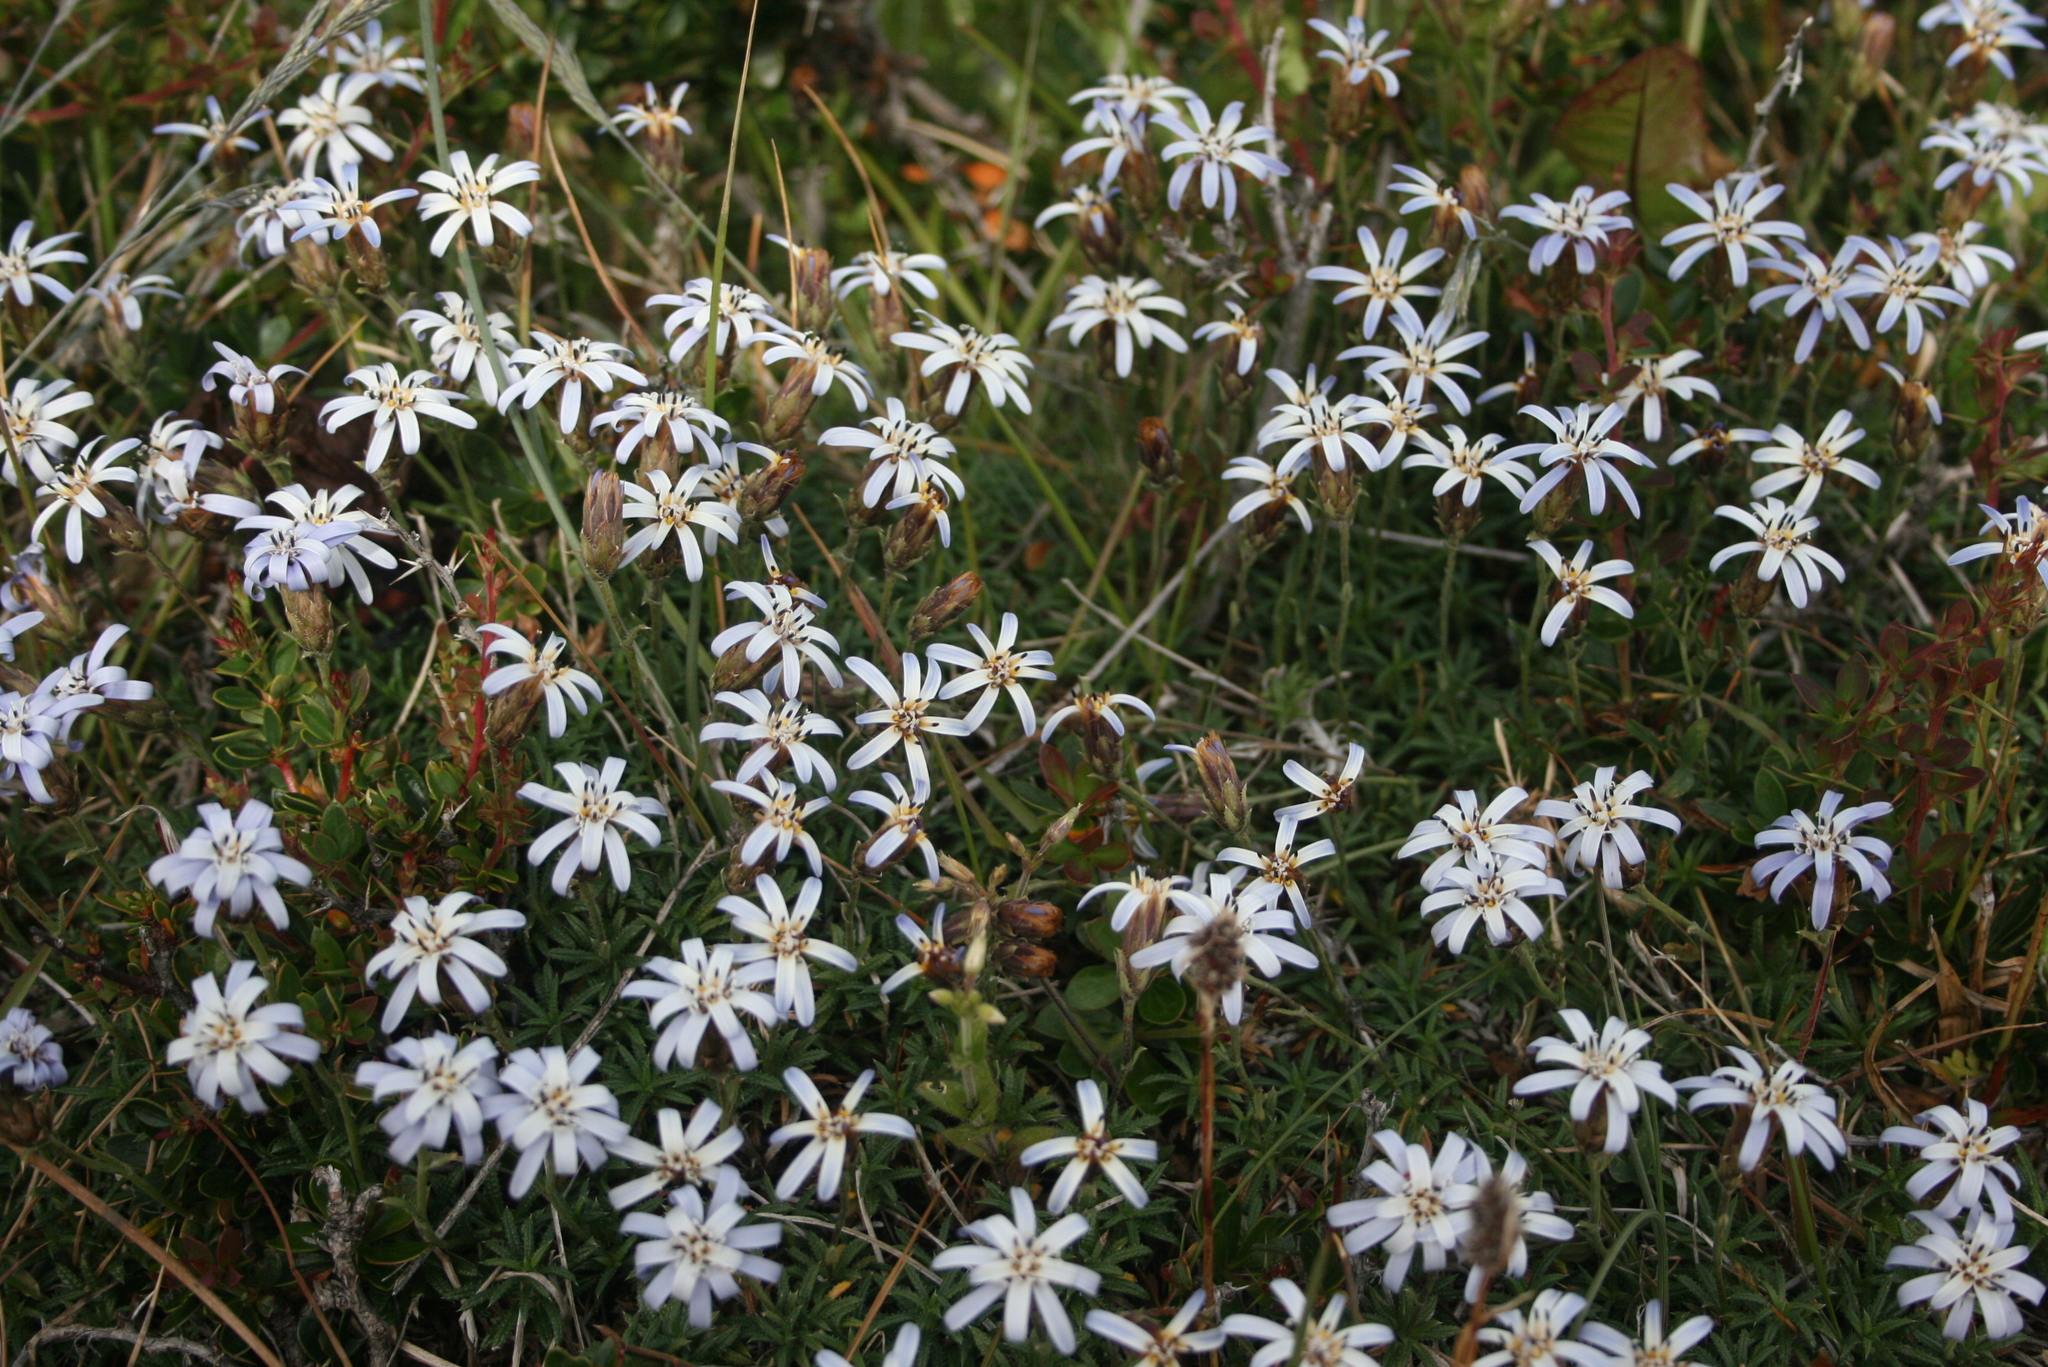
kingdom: Plantae
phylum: Tracheophyta
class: Magnoliopsida
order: Asterales
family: Asteraceae
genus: Perezia
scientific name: Perezia recurvata
